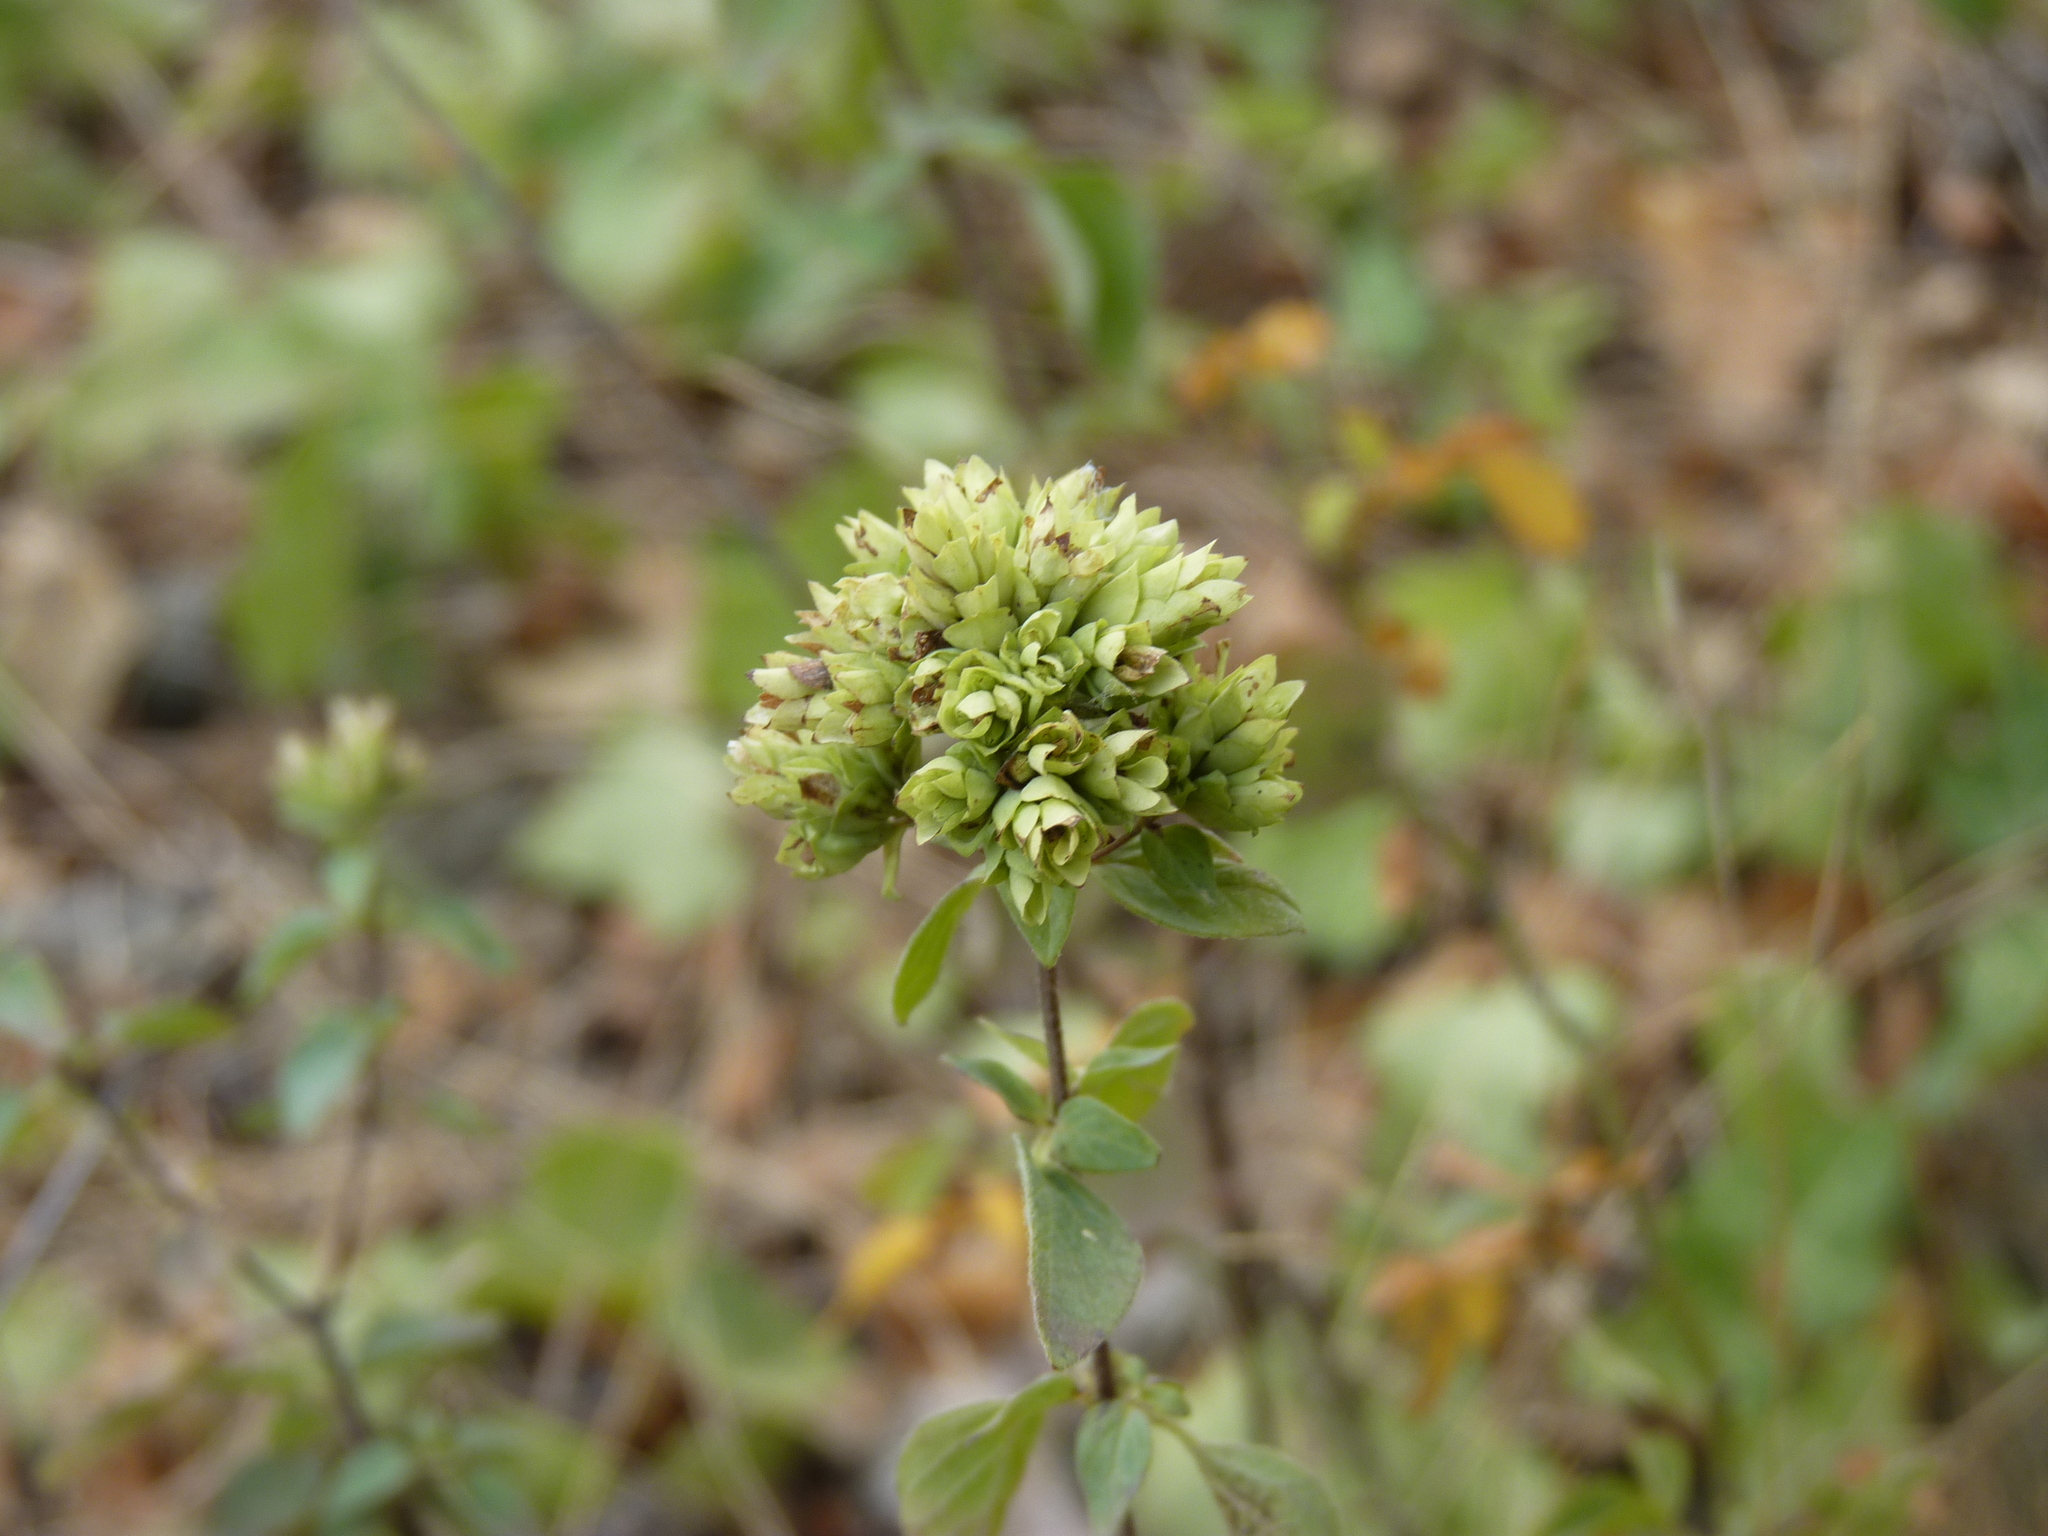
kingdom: Plantae
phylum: Tracheophyta
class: Magnoliopsida
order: Lamiales
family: Lamiaceae
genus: Origanum
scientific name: Origanum vulgare
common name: Wild marjoram
